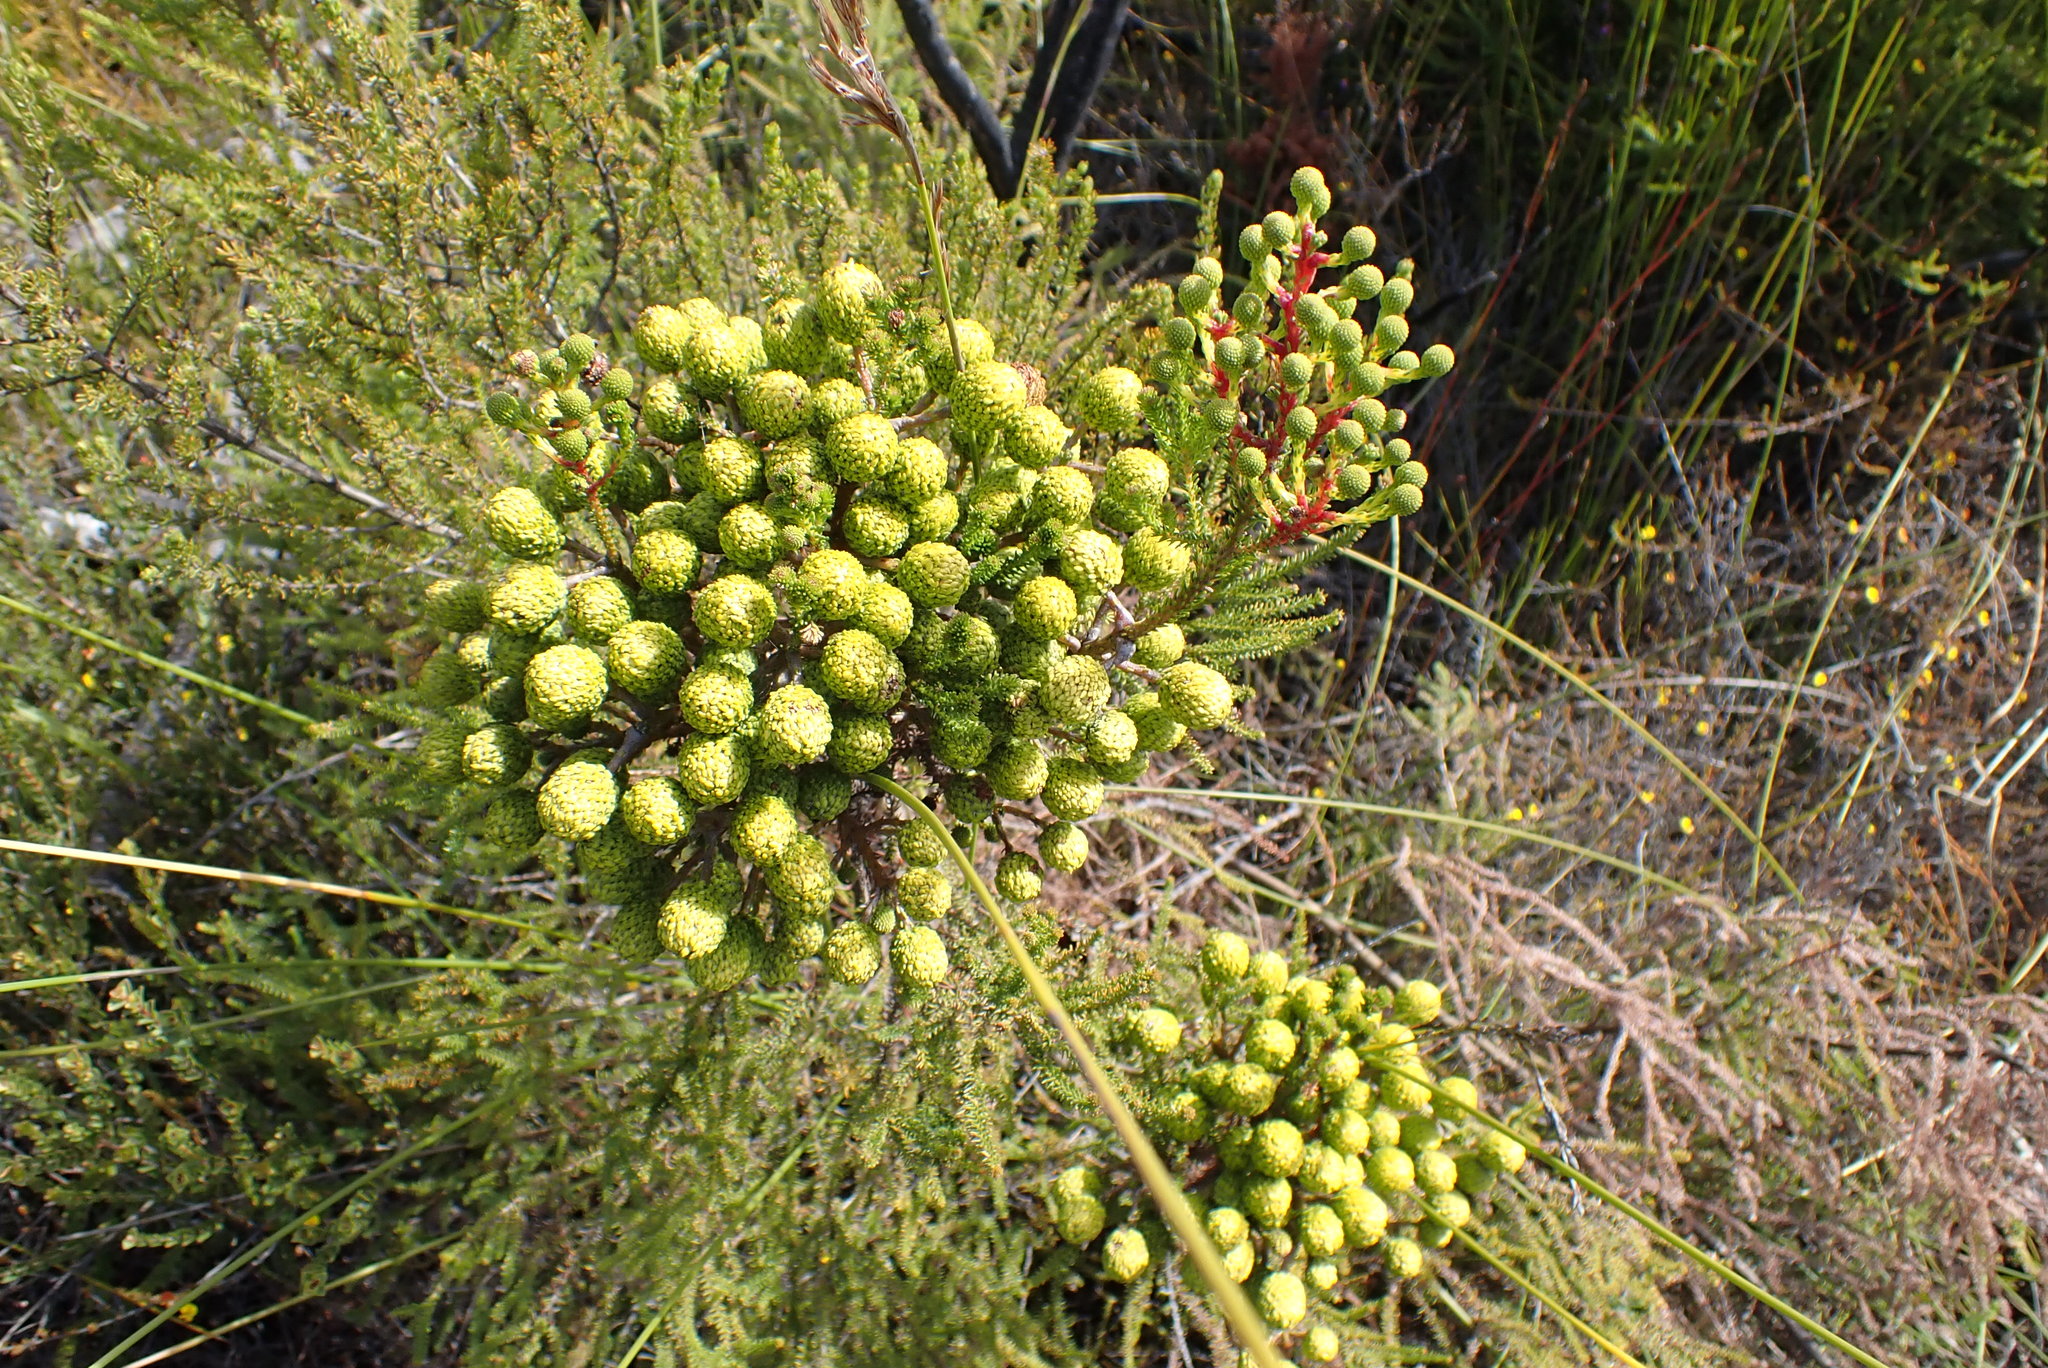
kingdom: Plantae
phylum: Tracheophyta
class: Magnoliopsida
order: Bruniales
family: Bruniaceae
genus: Berzelia
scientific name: Berzelia intermedia
